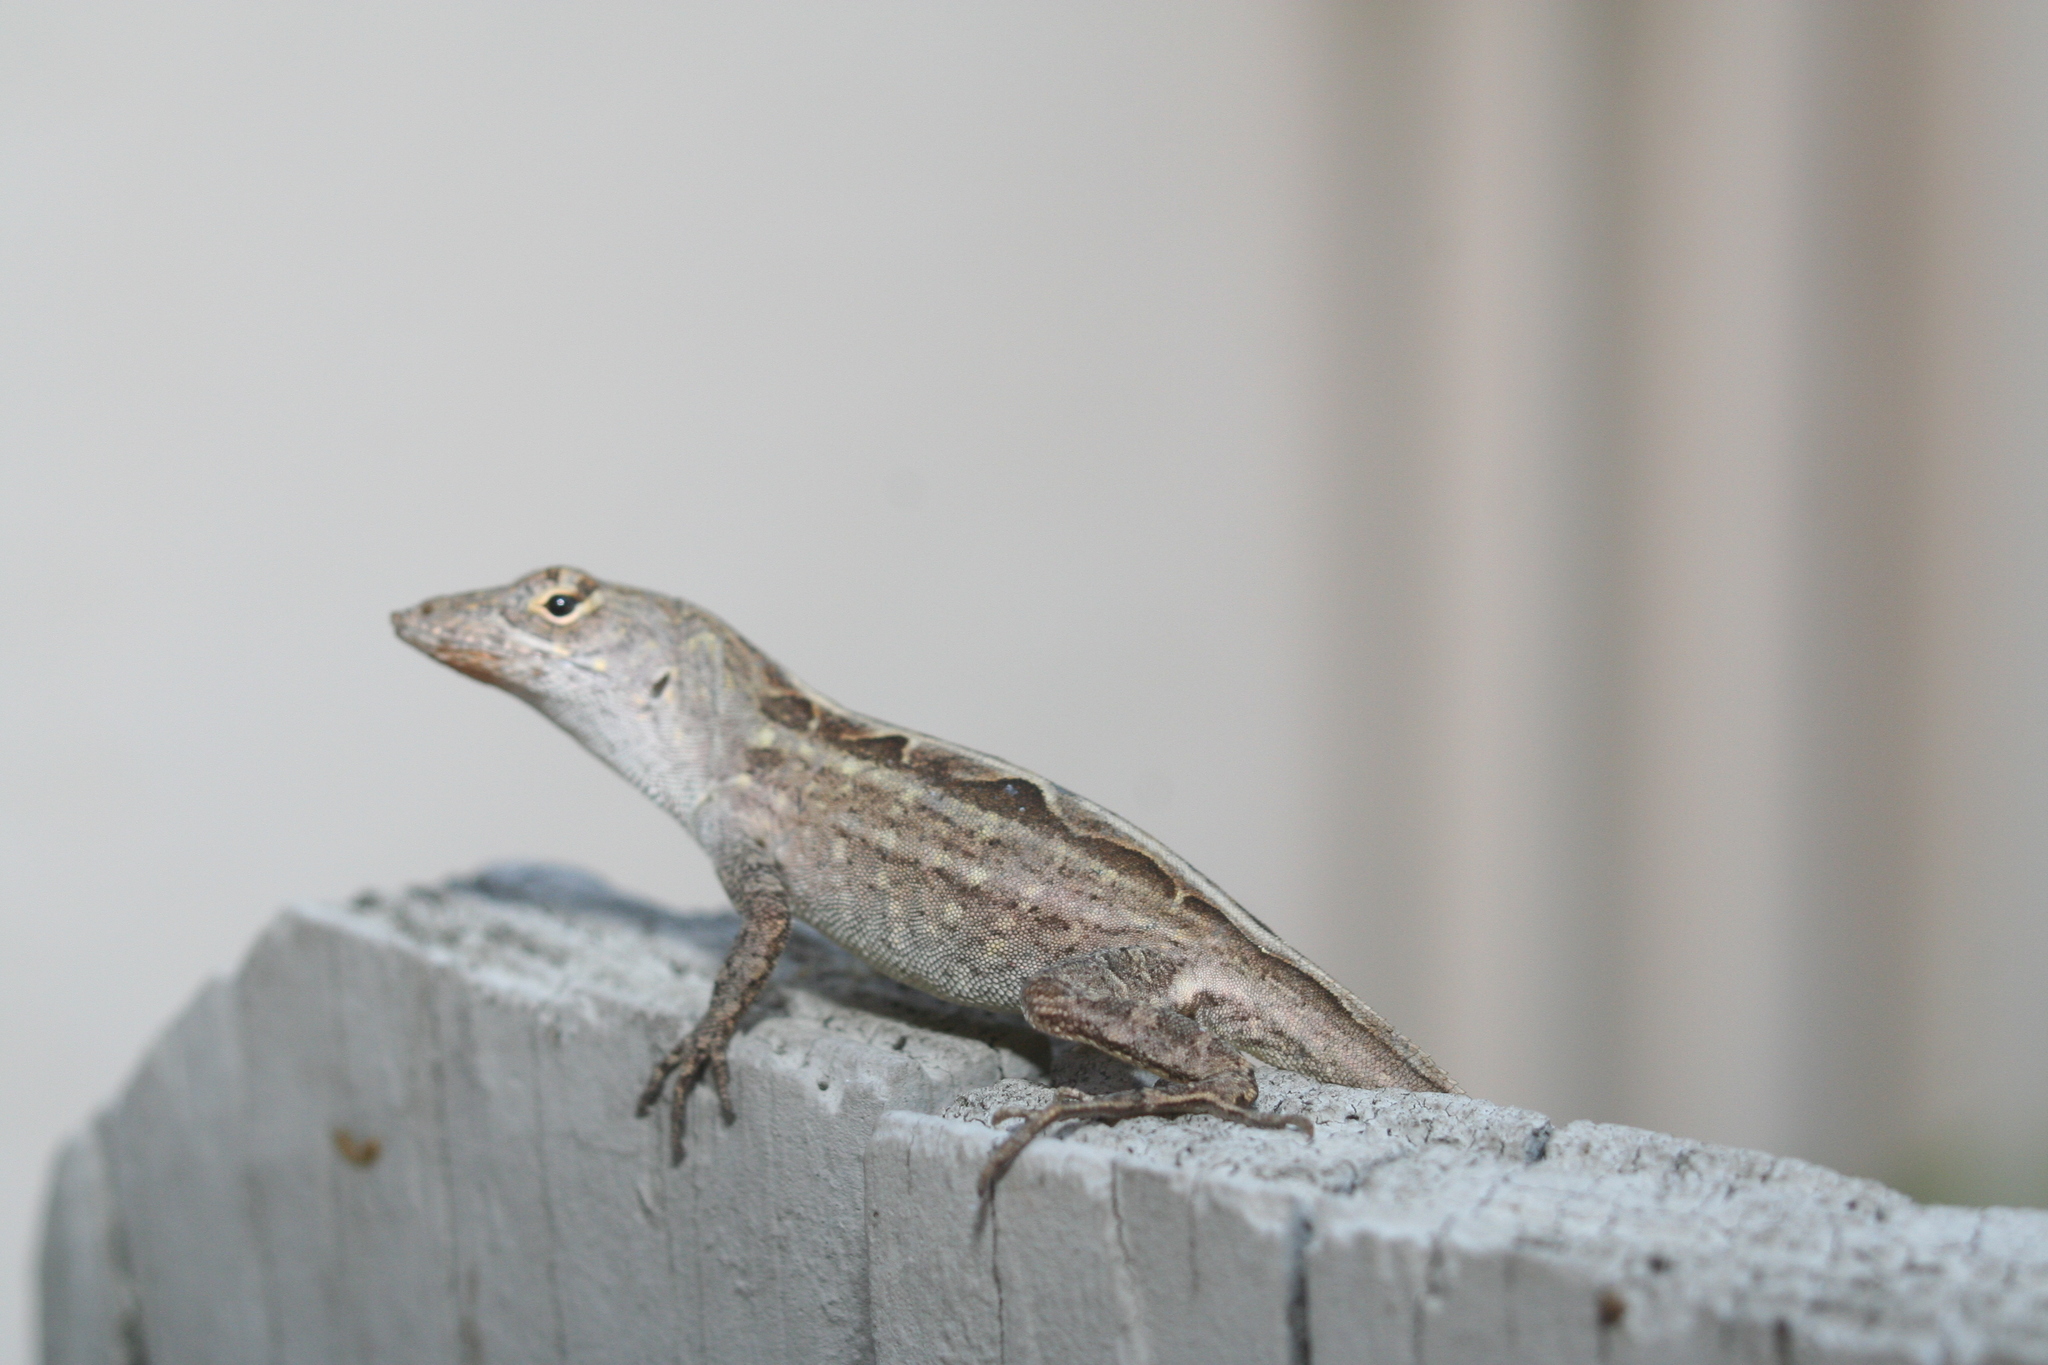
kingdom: Animalia
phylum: Chordata
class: Squamata
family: Dactyloidae
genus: Anolis
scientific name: Anolis sagrei
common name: Brown anole
